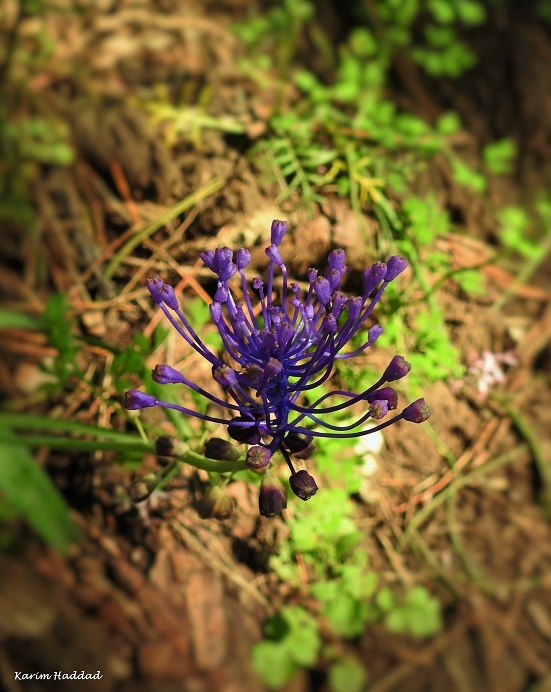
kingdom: Plantae
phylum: Tracheophyta
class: Liliopsida
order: Asparagales
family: Asparagaceae
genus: Muscari
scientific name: Muscari comosum
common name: Tassel hyacinth
